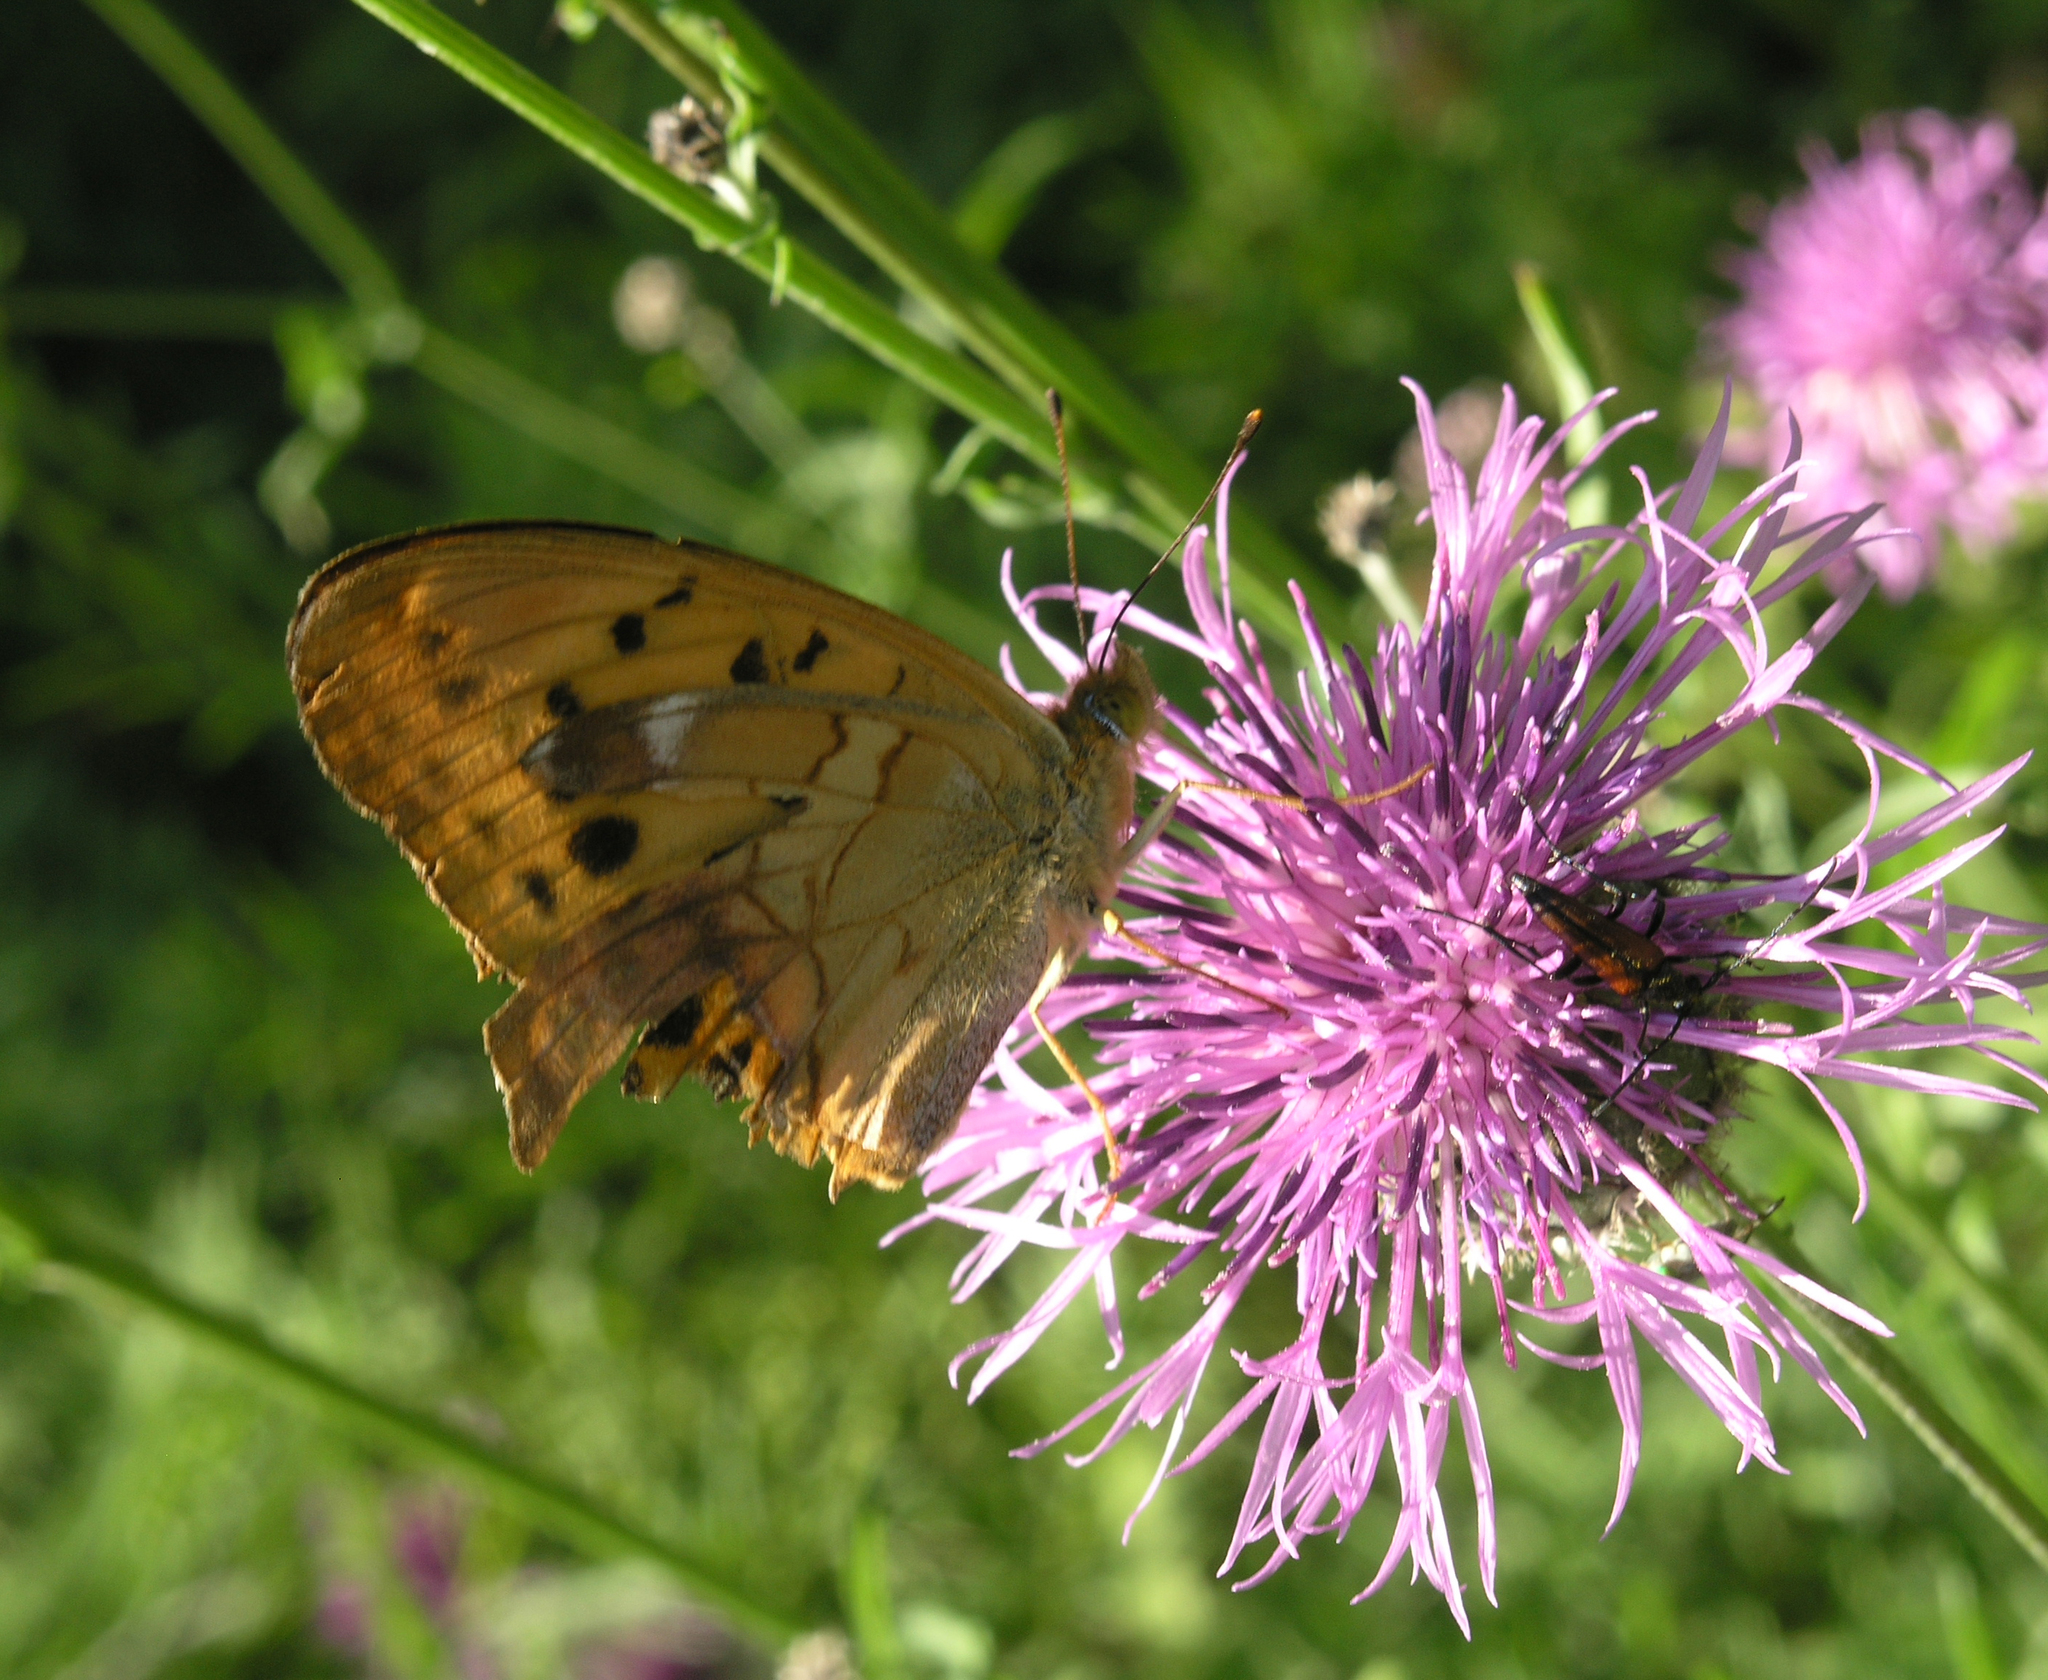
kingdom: Animalia
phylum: Arthropoda
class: Insecta
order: Lepidoptera
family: Nymphalidae
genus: Damora
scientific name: Damora sagana
